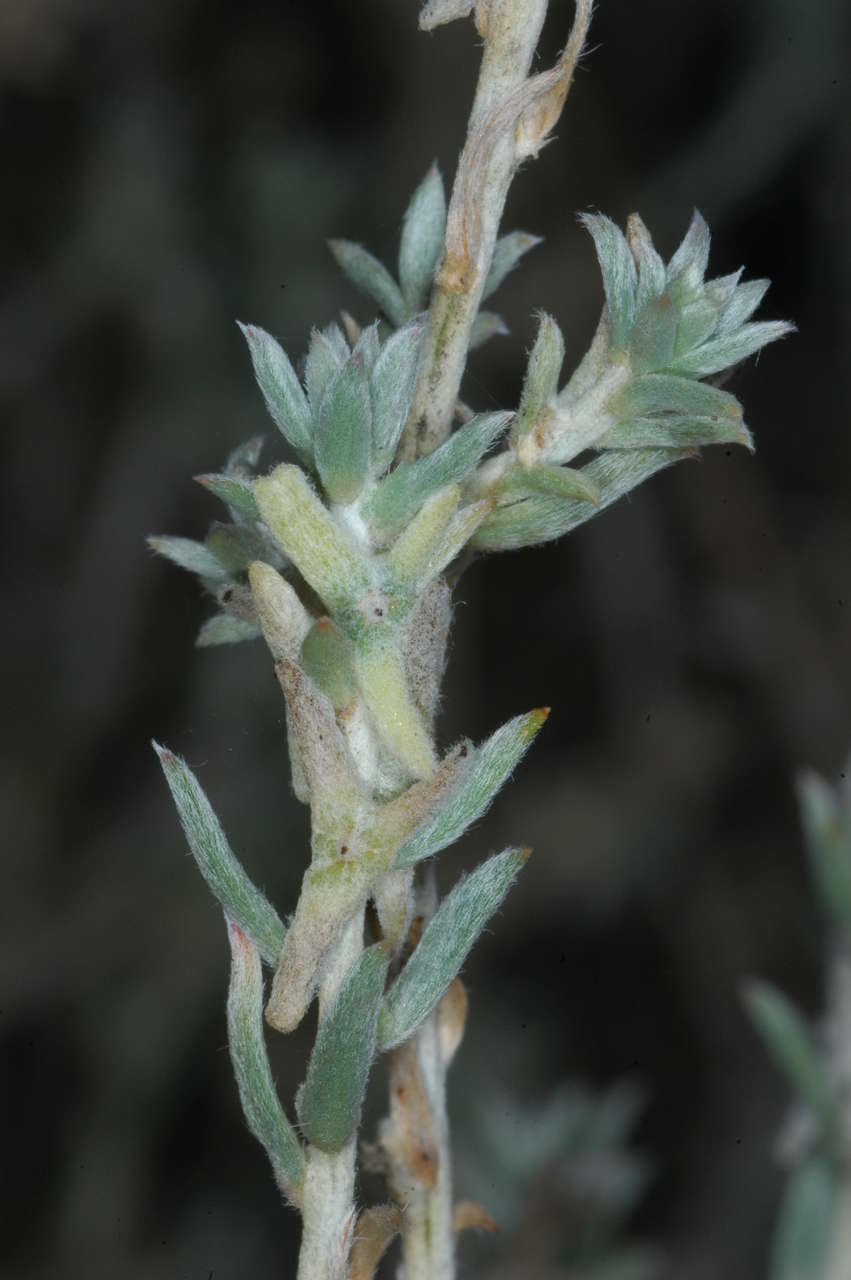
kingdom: Plantae
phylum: Tracheophyta
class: Magnoliopsida
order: Caryophyllales
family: Amaranthaceae
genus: Malacocera
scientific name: Malacocera tricornis
